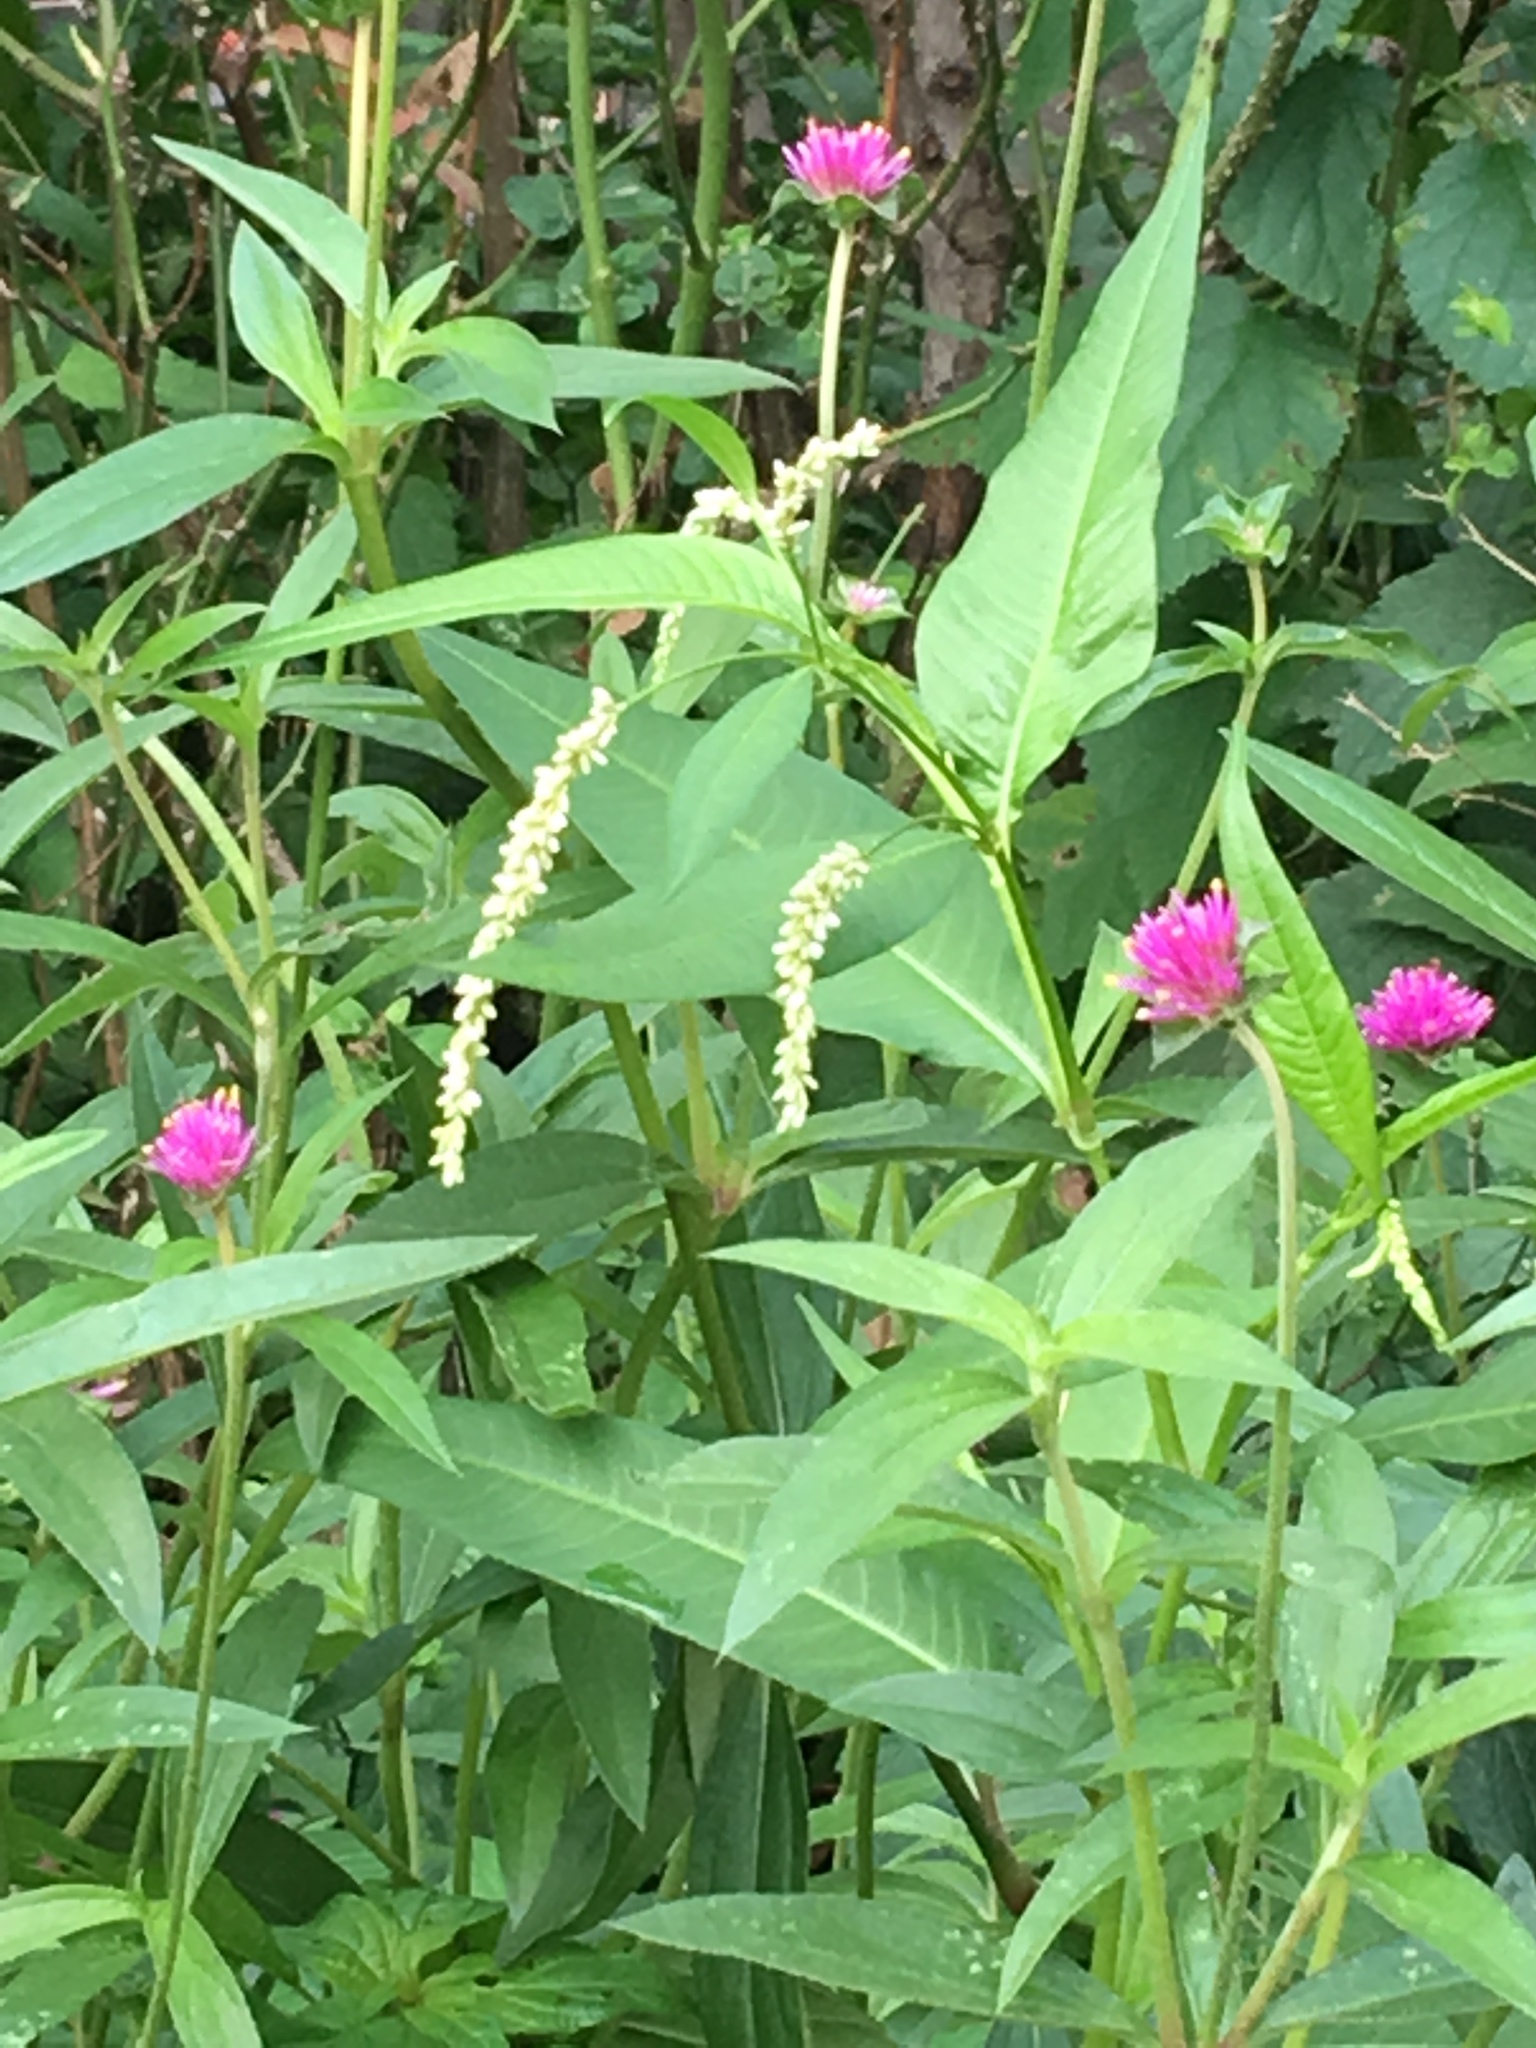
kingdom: Plantae
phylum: Tracheophyta
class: Magnoliopsida
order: Caryophyllales
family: Polygonaceae
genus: Persicaria
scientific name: Persicaria lapathifolia
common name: Curlytop knotweed
